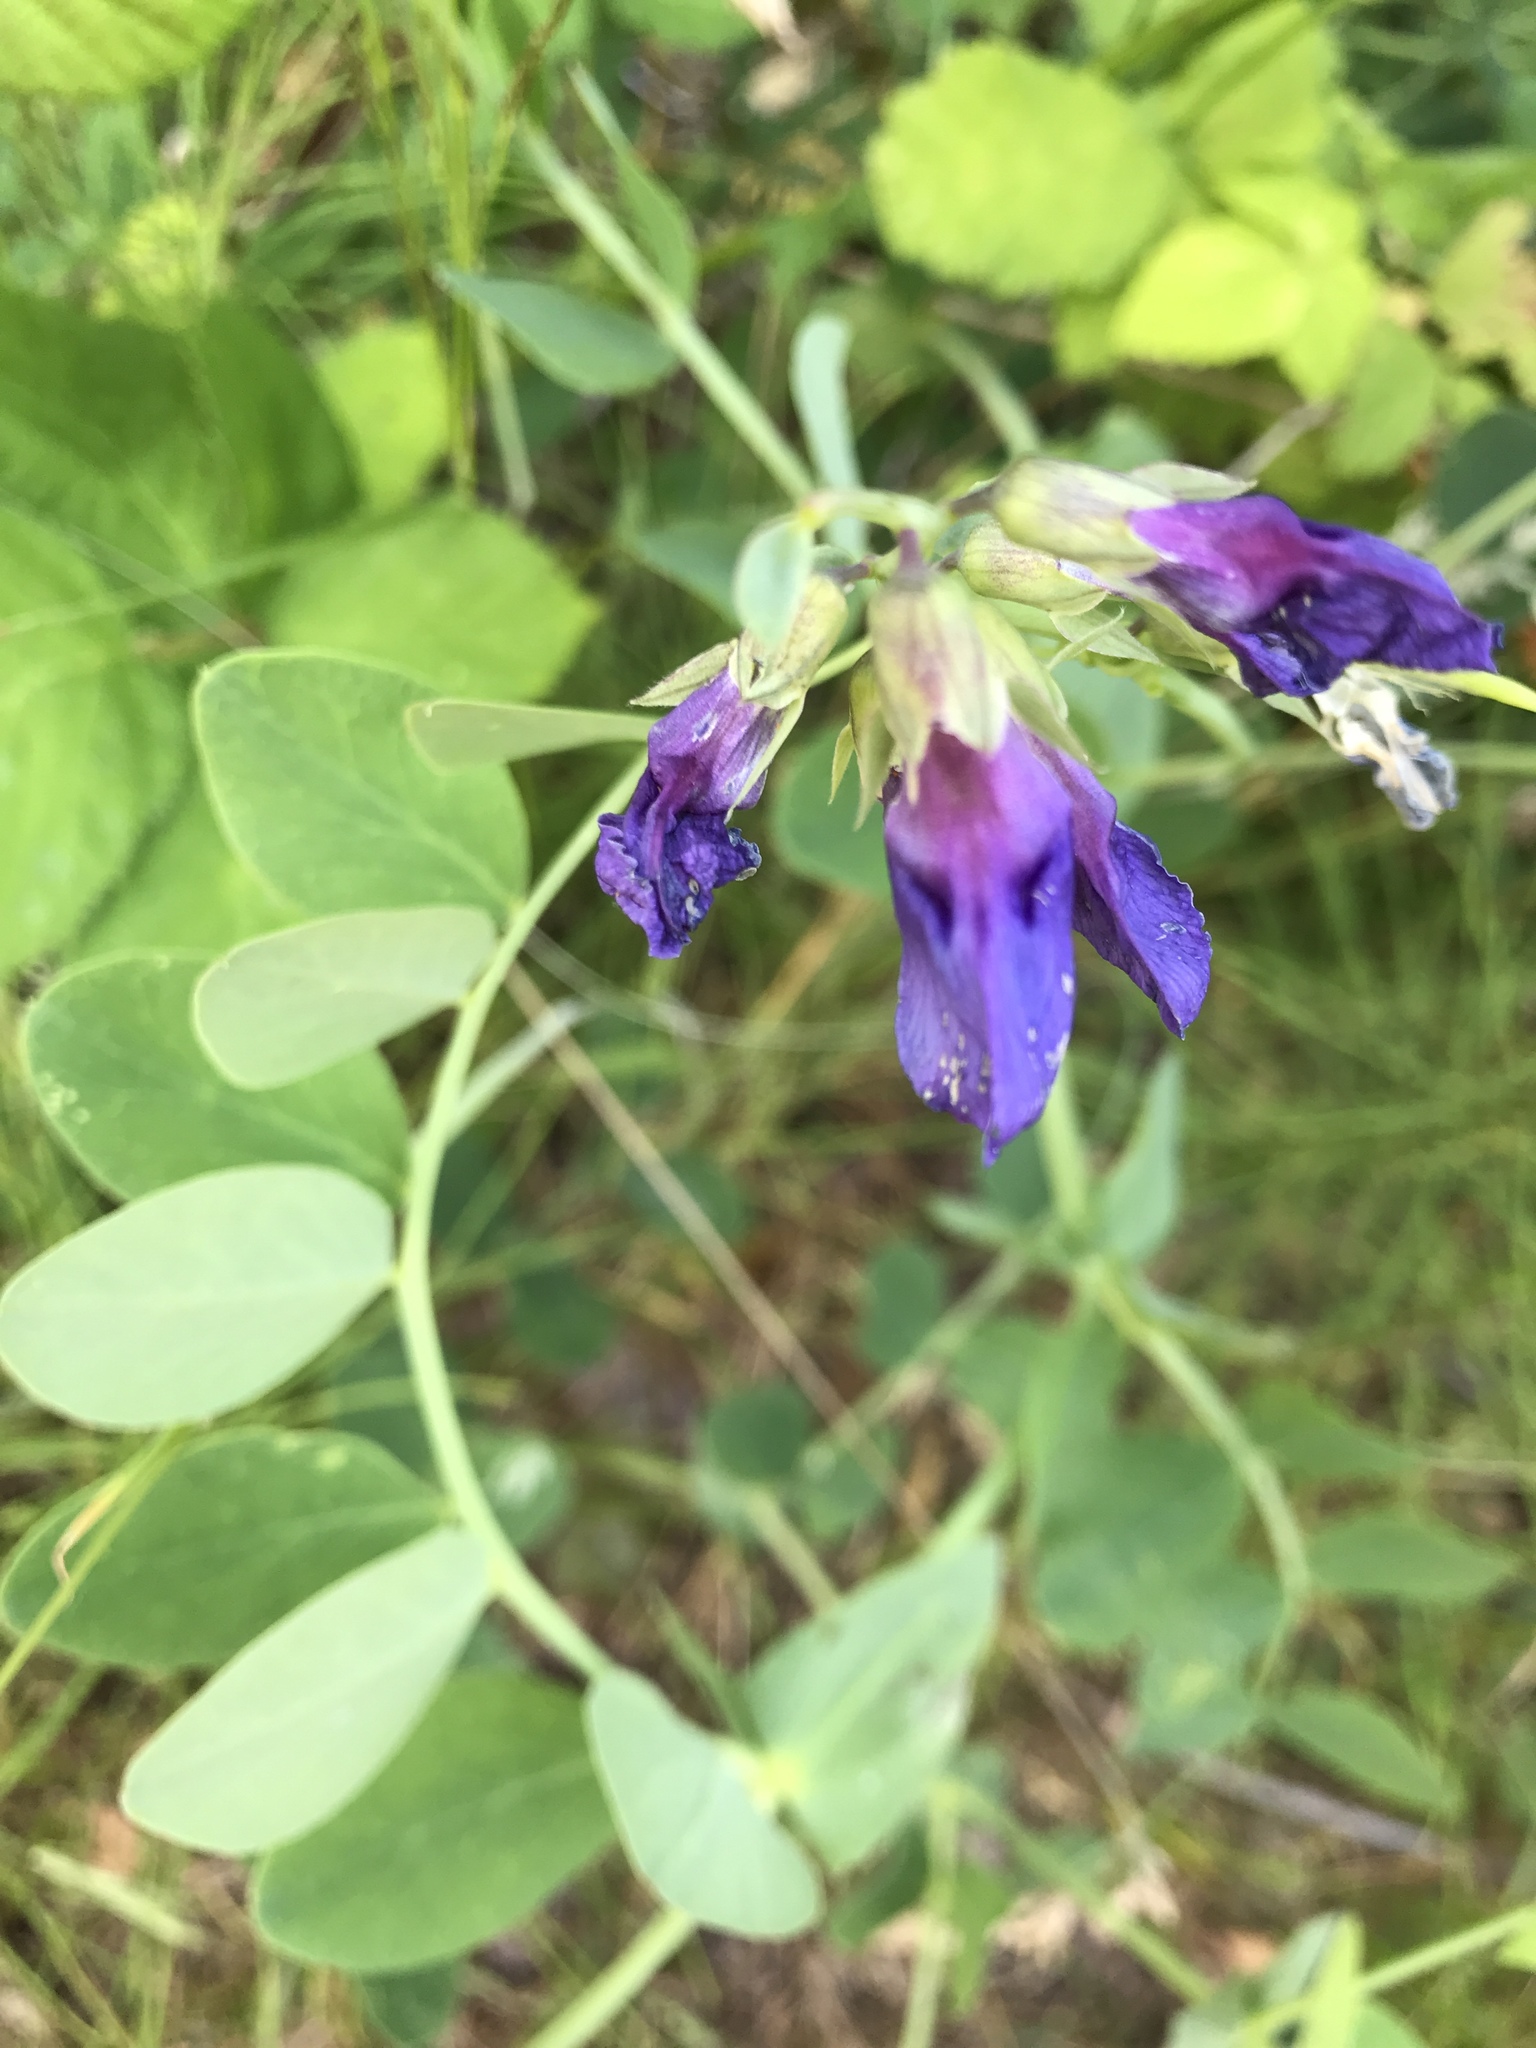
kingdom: Plantae
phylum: Tracheophyta
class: Magnoliopsida
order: Fabales
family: Fabaceae
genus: Lathyrus
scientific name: Lathyrus japonicus
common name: Sea pea
